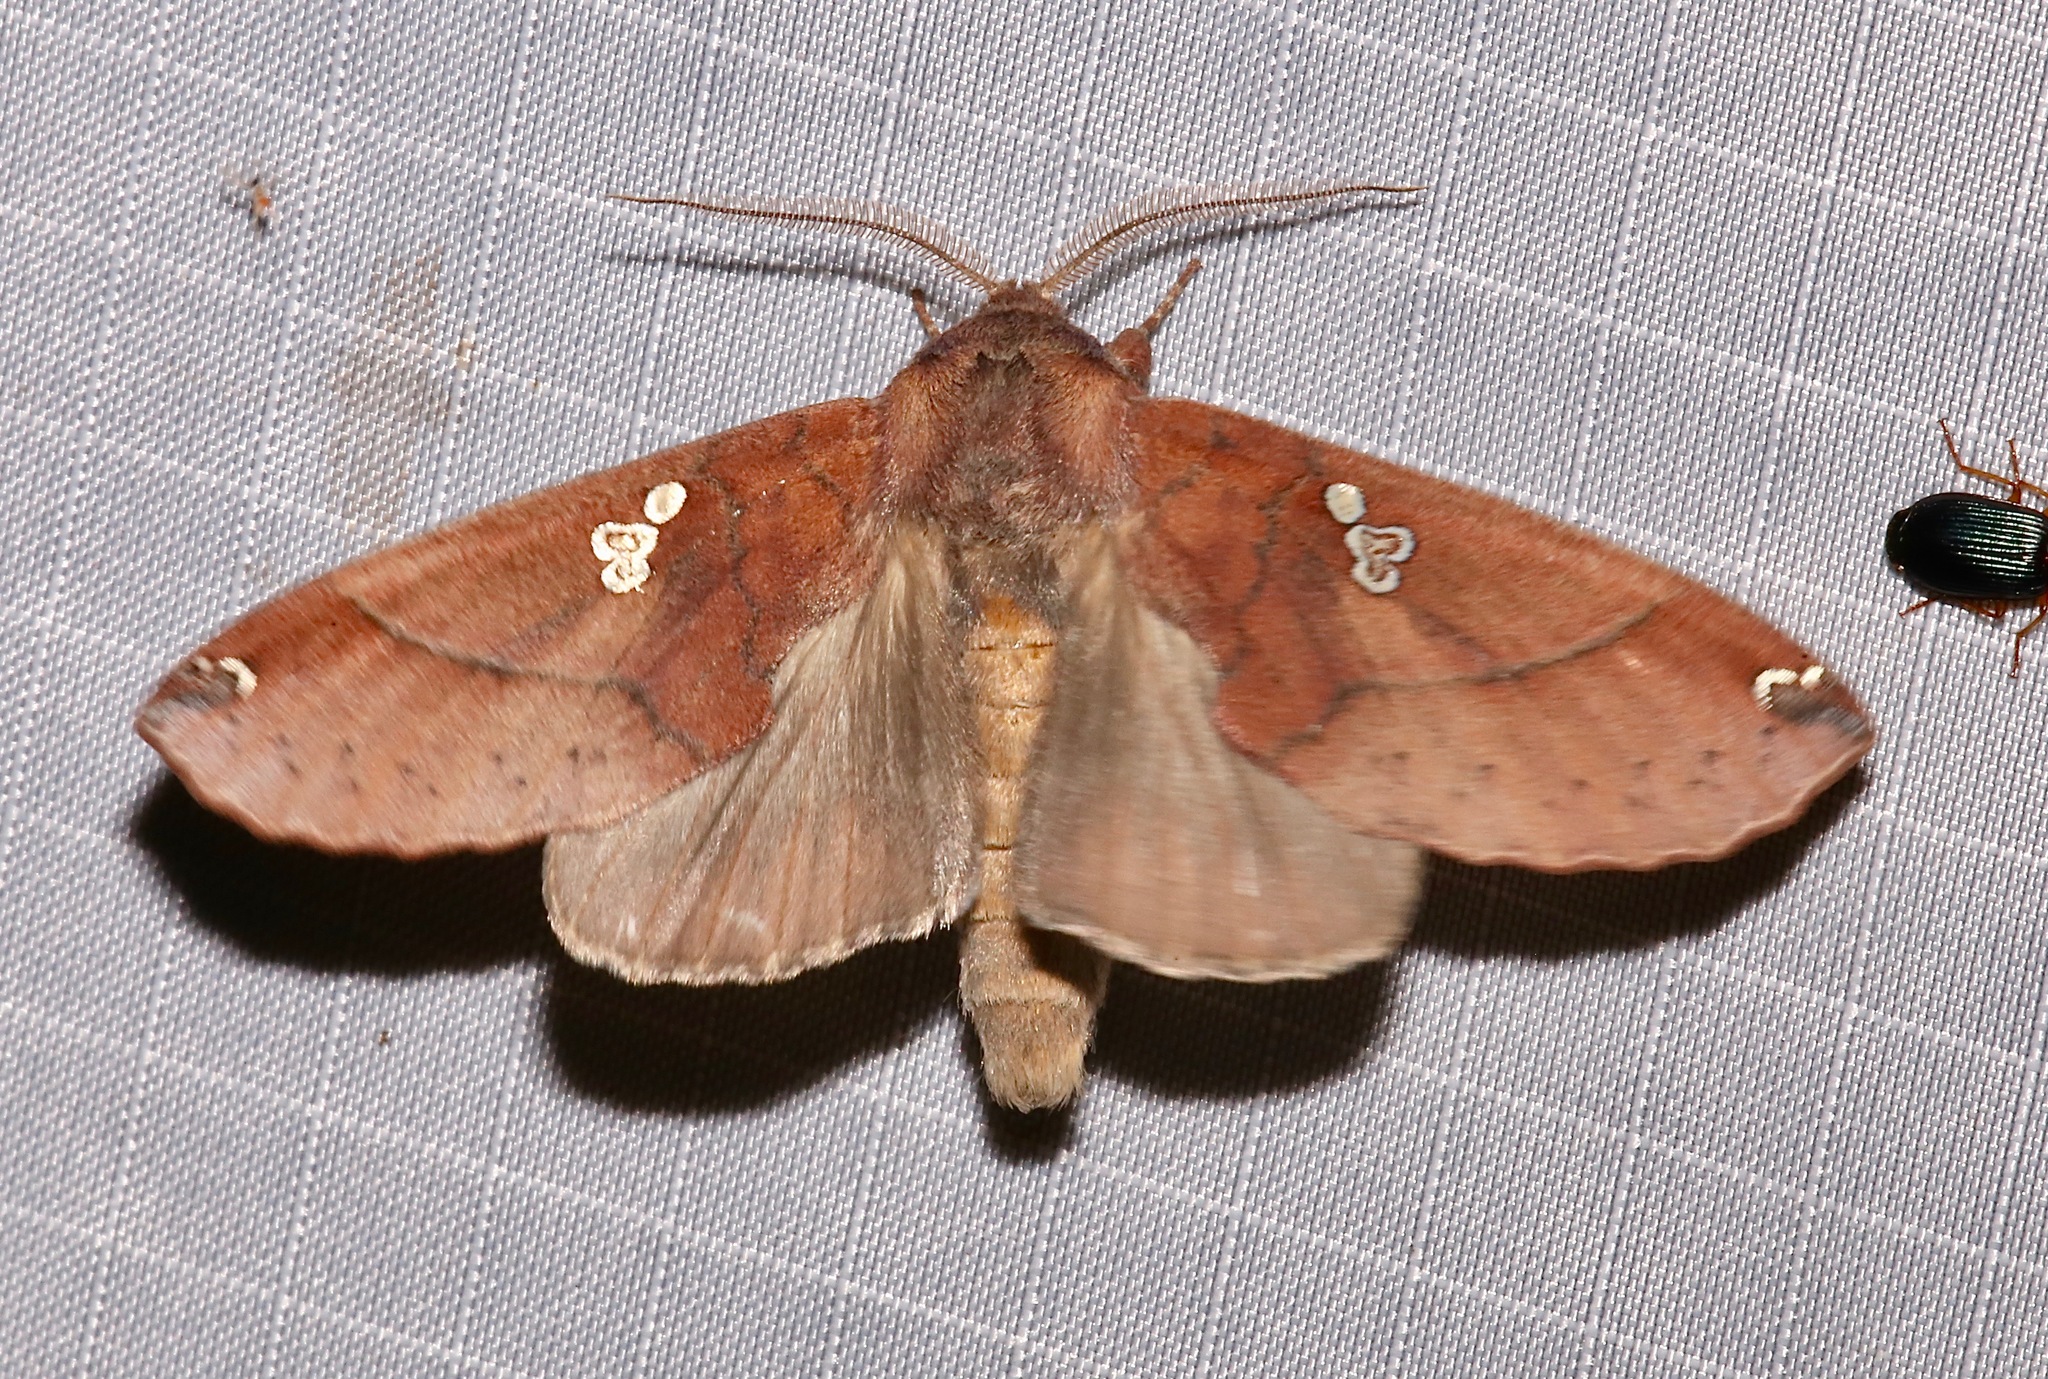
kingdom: Animalia
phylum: Arthropoda
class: Insecta
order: Lepidoptera
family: Notodontidae
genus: Pseudhapigia
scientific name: Pseudhapigia brunnea
